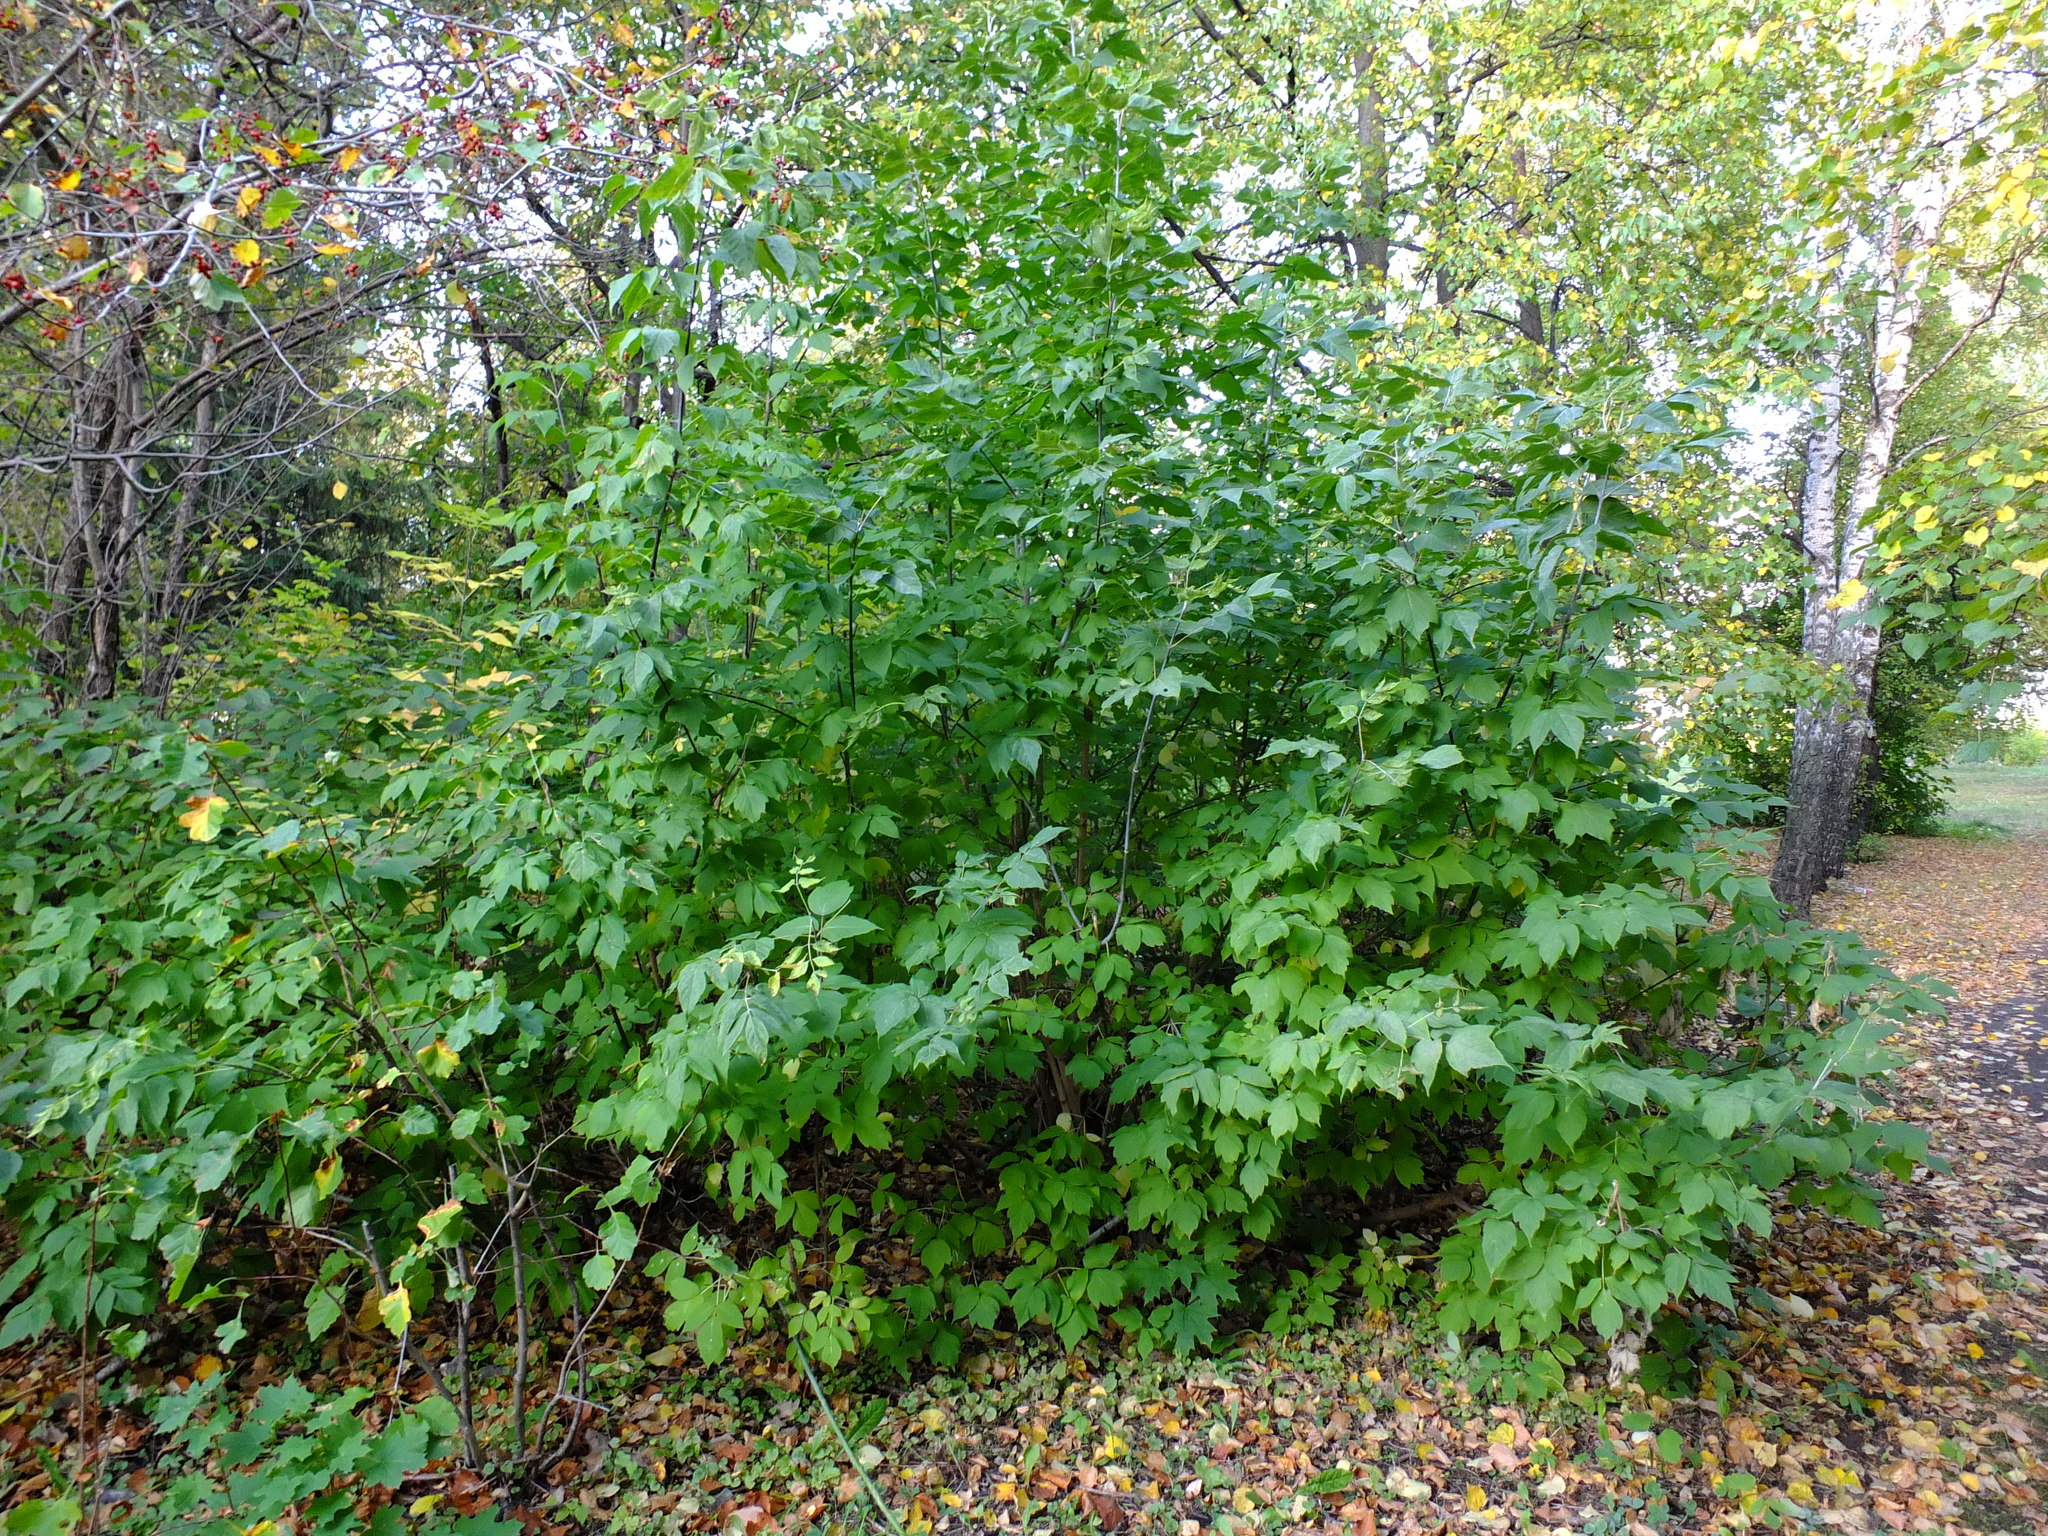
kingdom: Plantae
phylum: Tracheophyta
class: Magnoliopsida
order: Sapindales
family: Sapindaceae
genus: Acer
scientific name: Acer negundo
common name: Ashleaf maple
